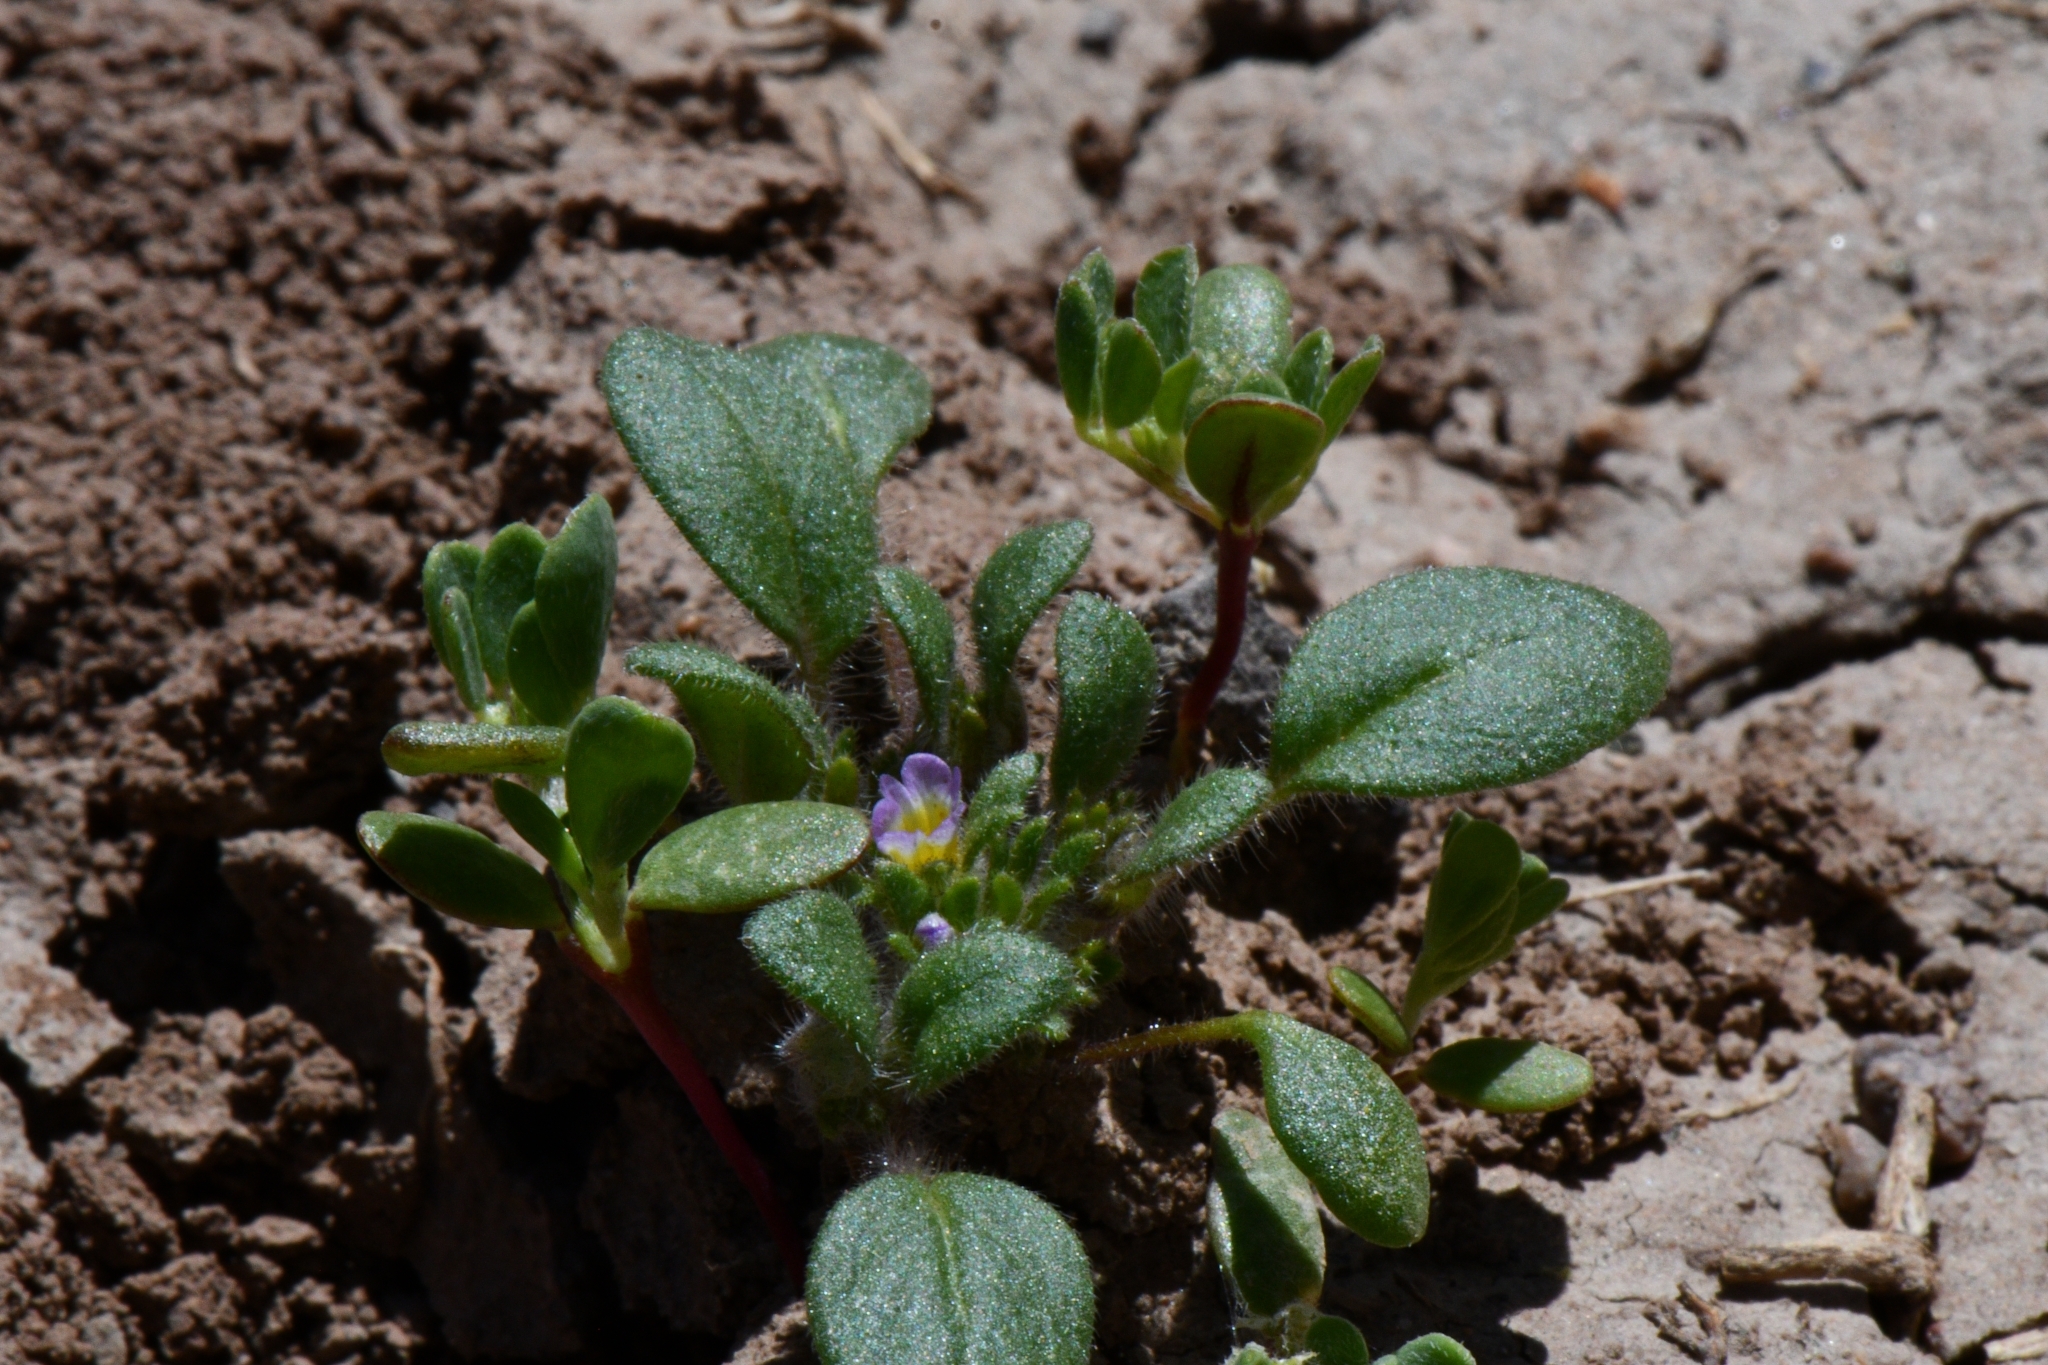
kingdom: Plantae
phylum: Tracheophyta
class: Magnoliopsida
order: Boraginales
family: Hydrophyllaceae
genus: Phacelia
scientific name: Phacelia cephalotes
